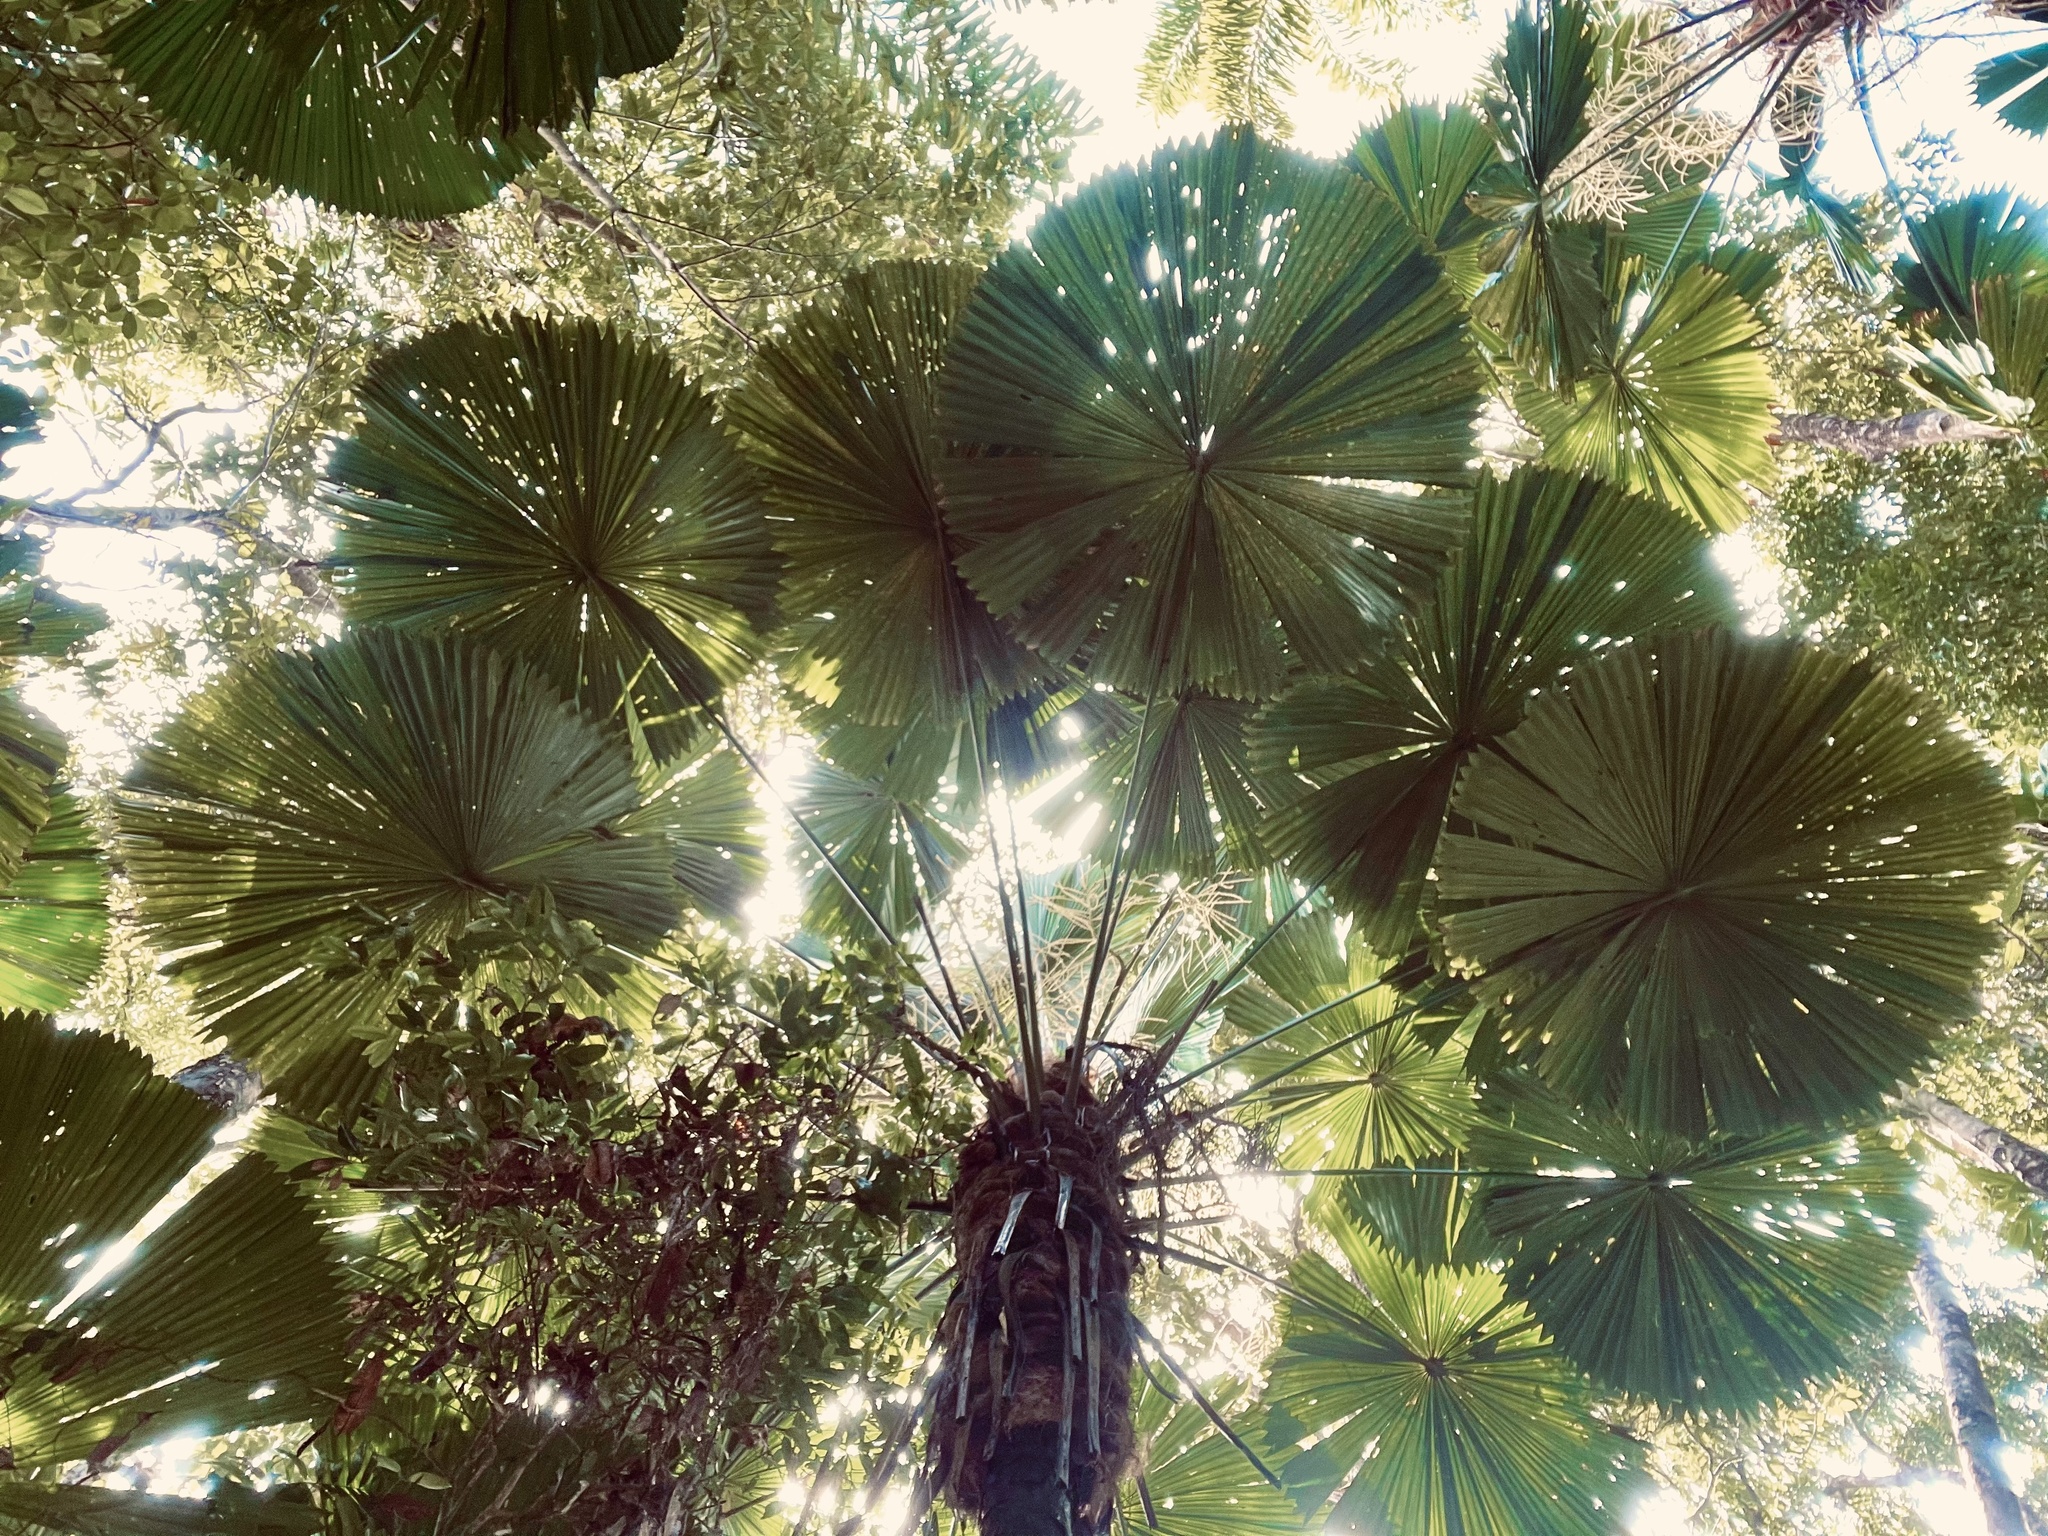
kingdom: Plantae
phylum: Tracheophyta
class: Liliopsida
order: Arecales
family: Arecaceae
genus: Licuala
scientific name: Licuala ramsayi
